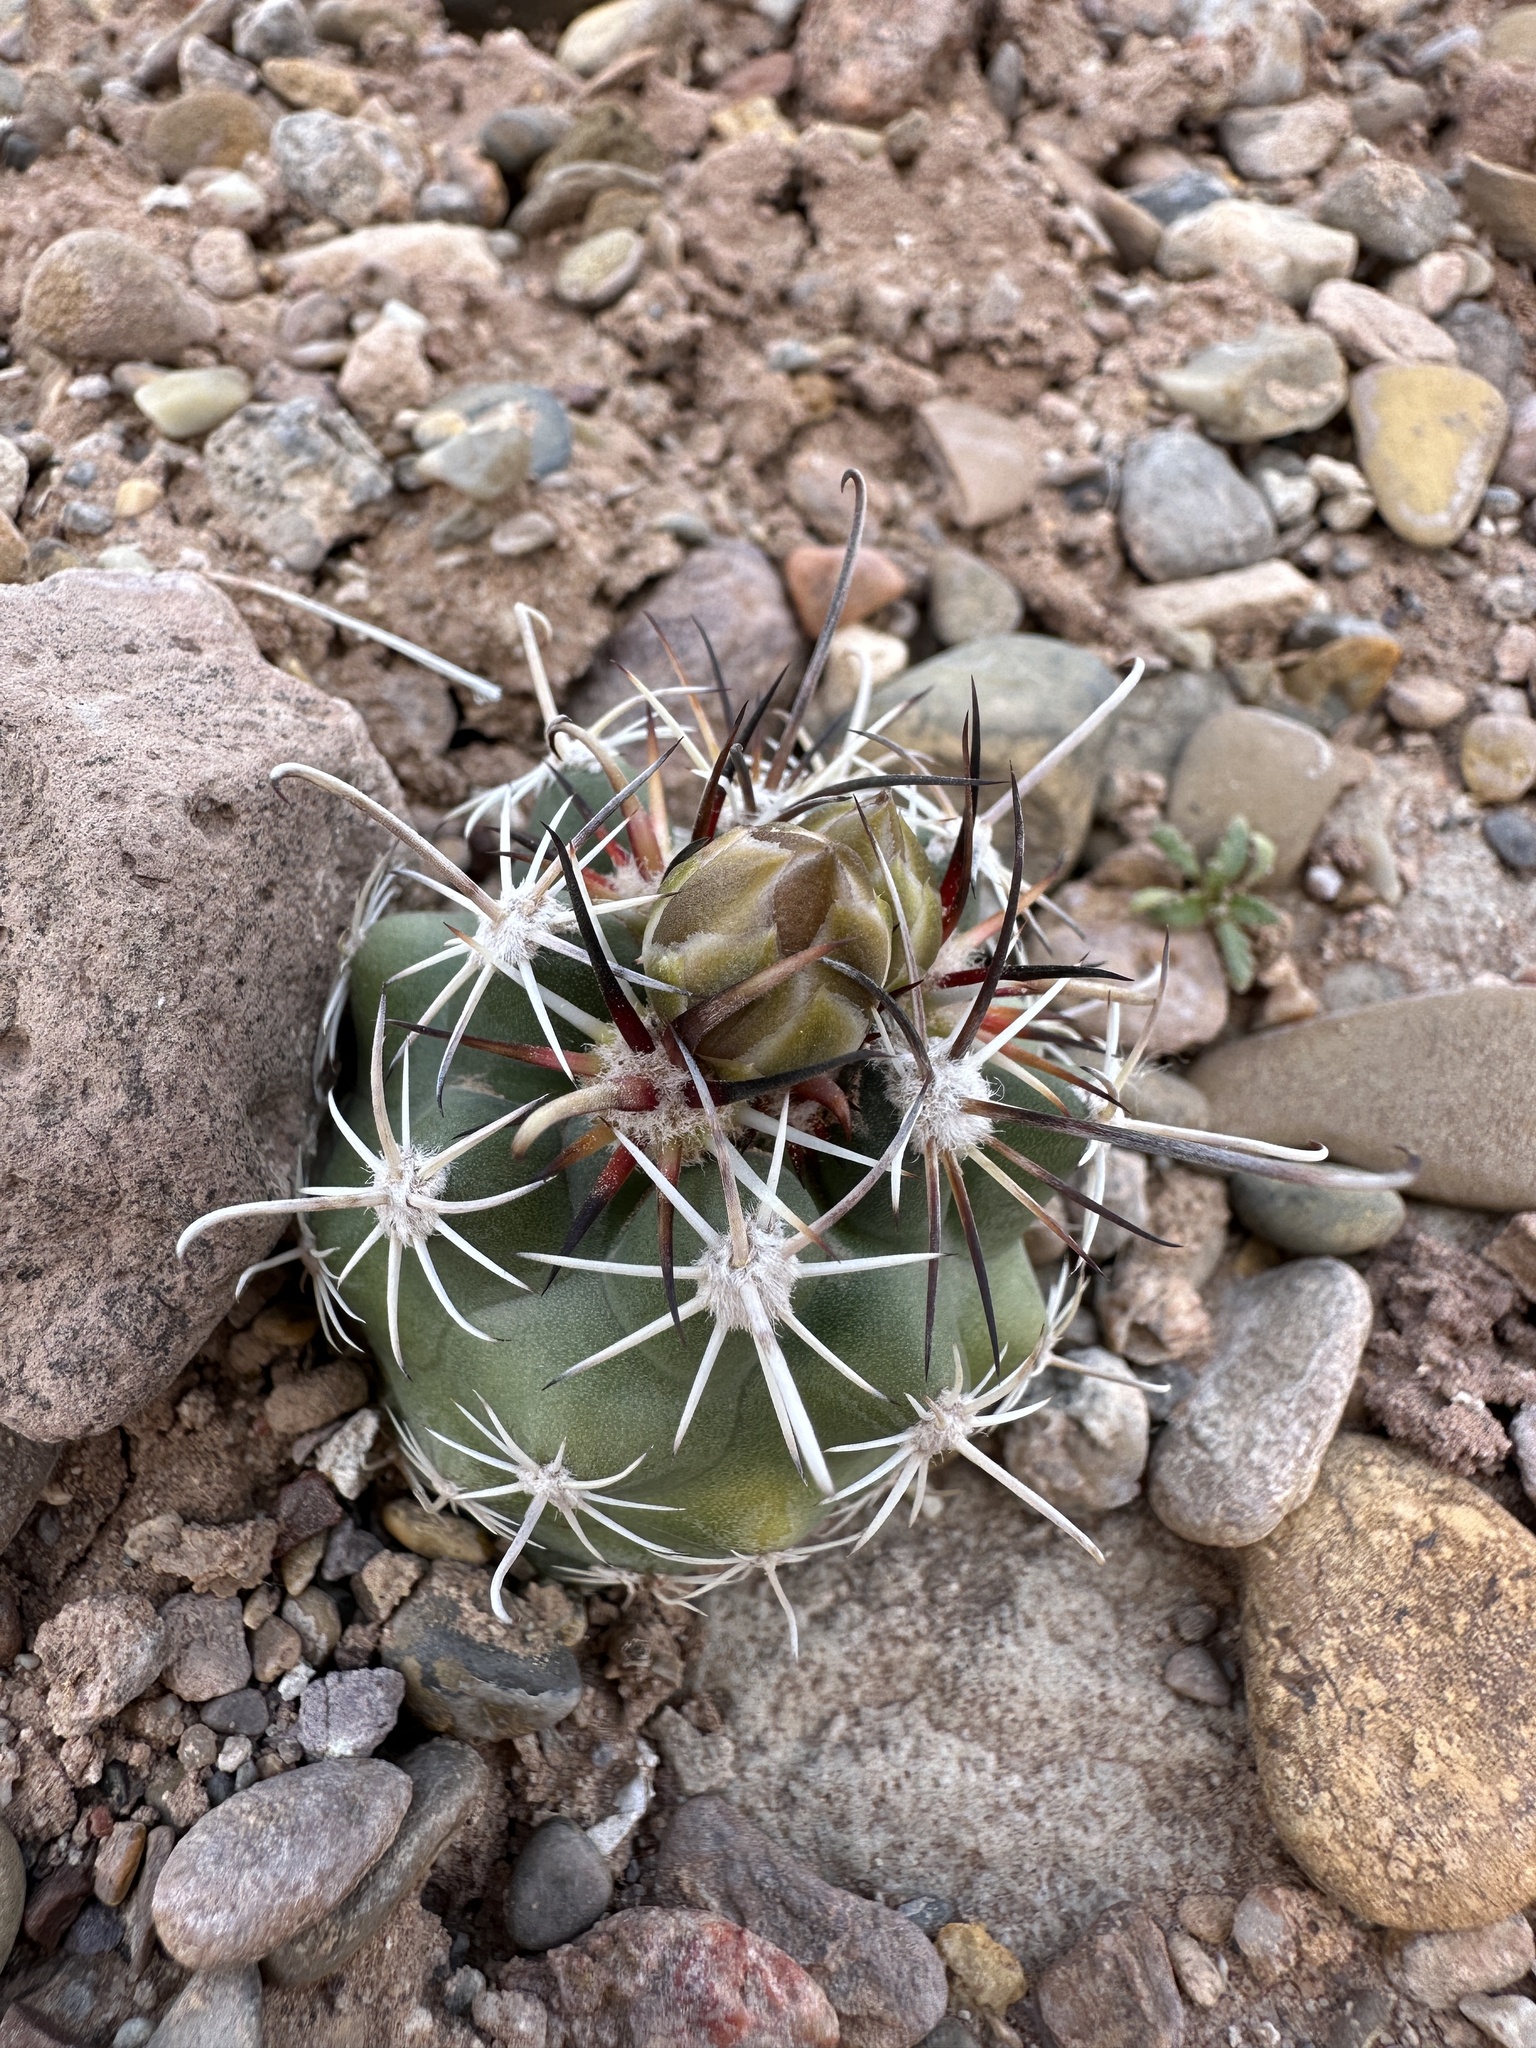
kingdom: Plantae
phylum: Tracheophyta
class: Magnoliopsida
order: Caryophyllales
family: Cactaceae
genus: Sclerocactus
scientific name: Sclerocactus parviflorus
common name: Small-flower fishhook cactus
